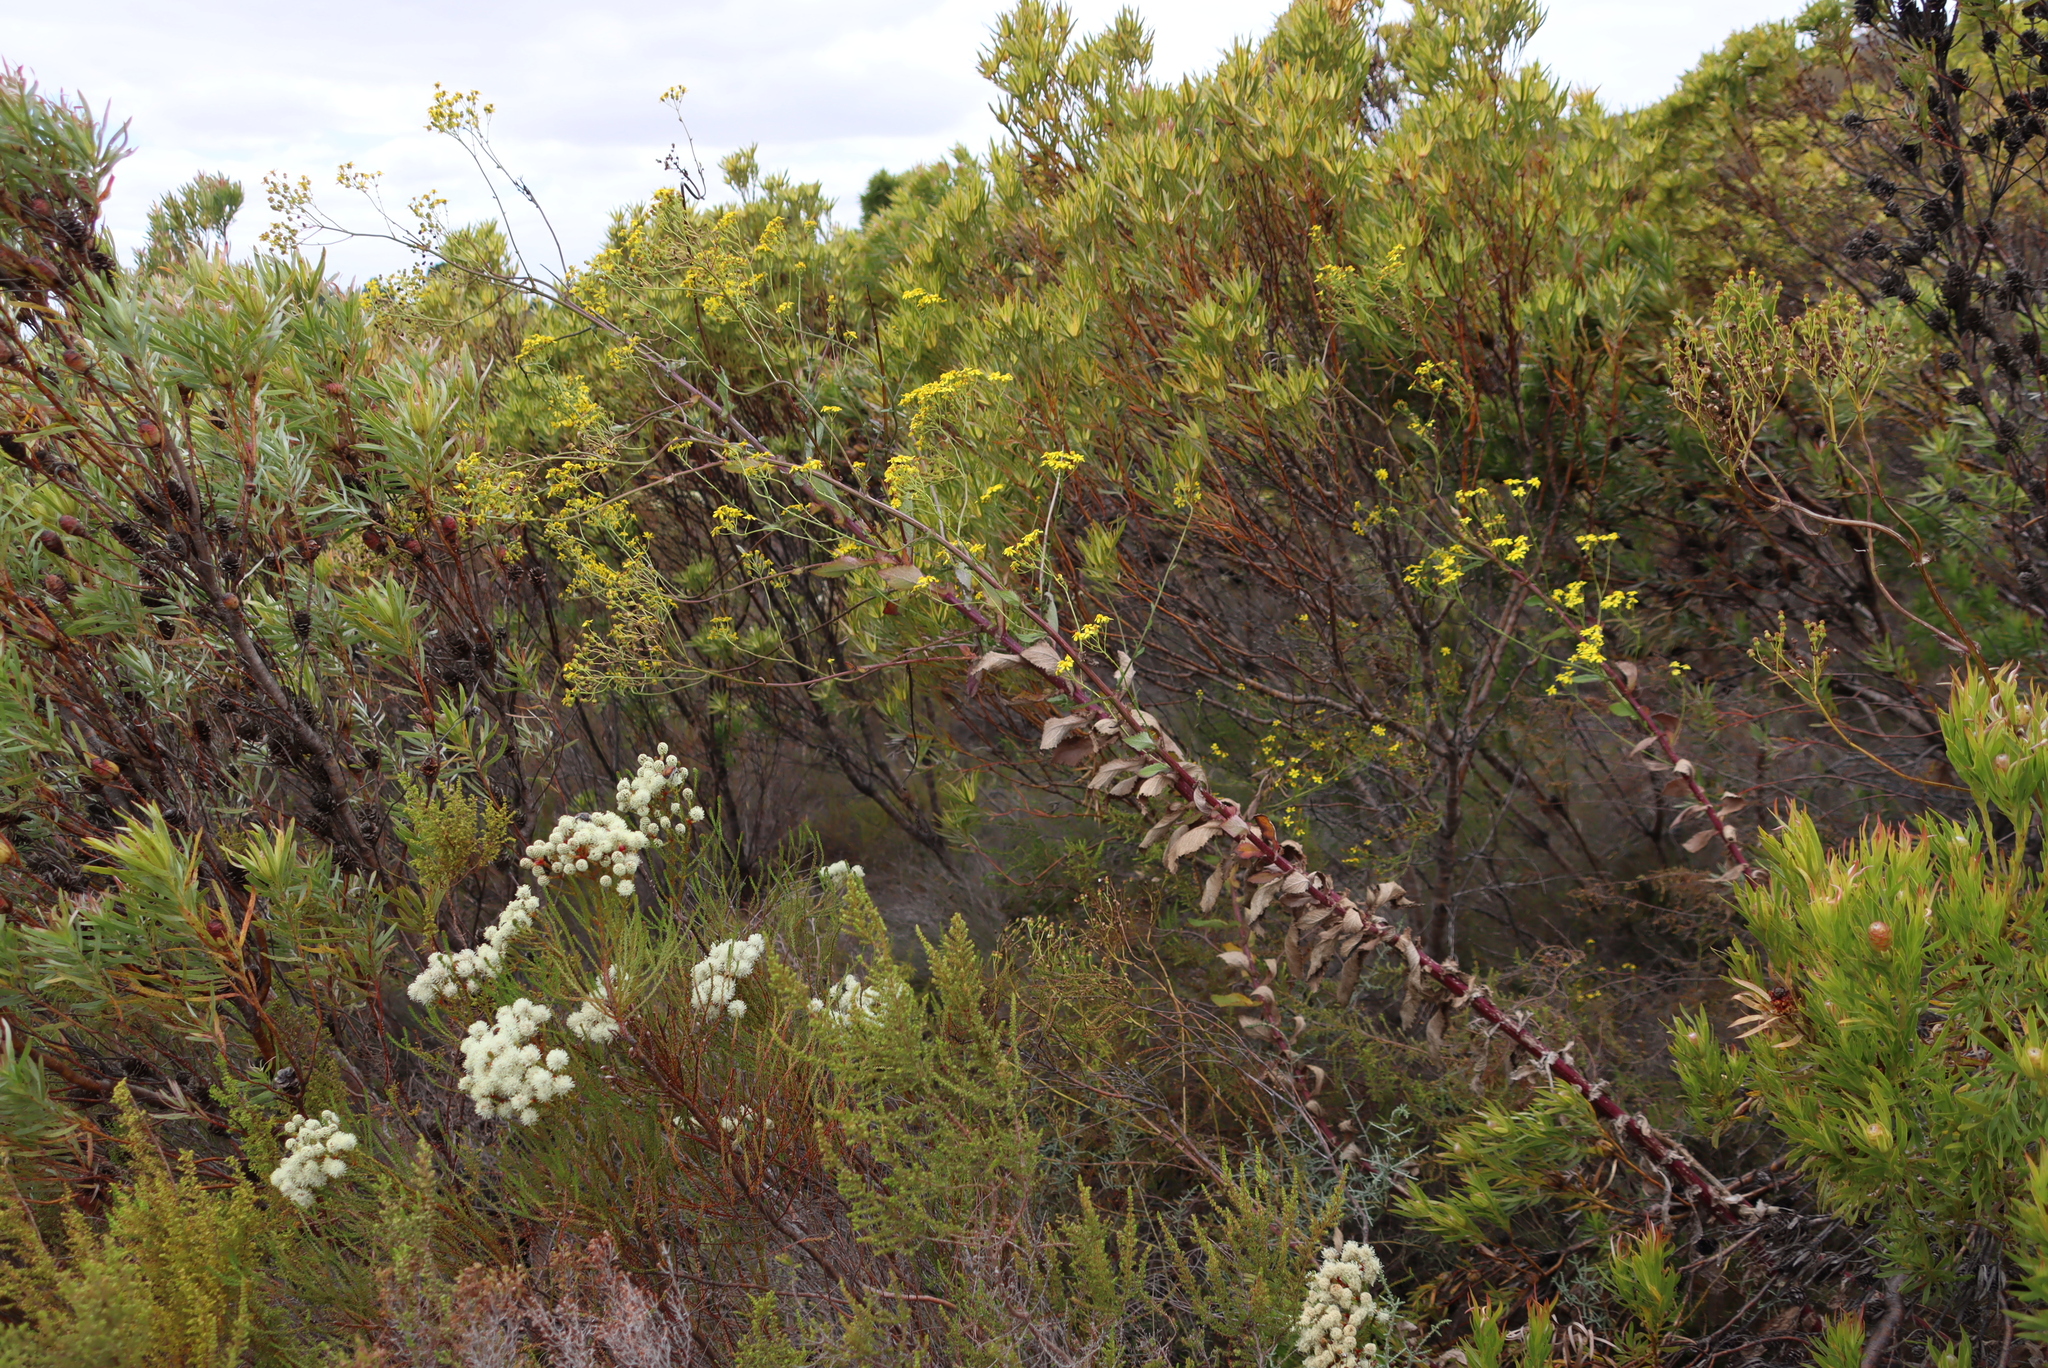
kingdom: Plantae
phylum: Tracheophyta
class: Magnoliopsida
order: Proteales
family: Proteaceae
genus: Leucadendron
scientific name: Leucadendron xanthoconus
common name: Sickle-leaf conebush
